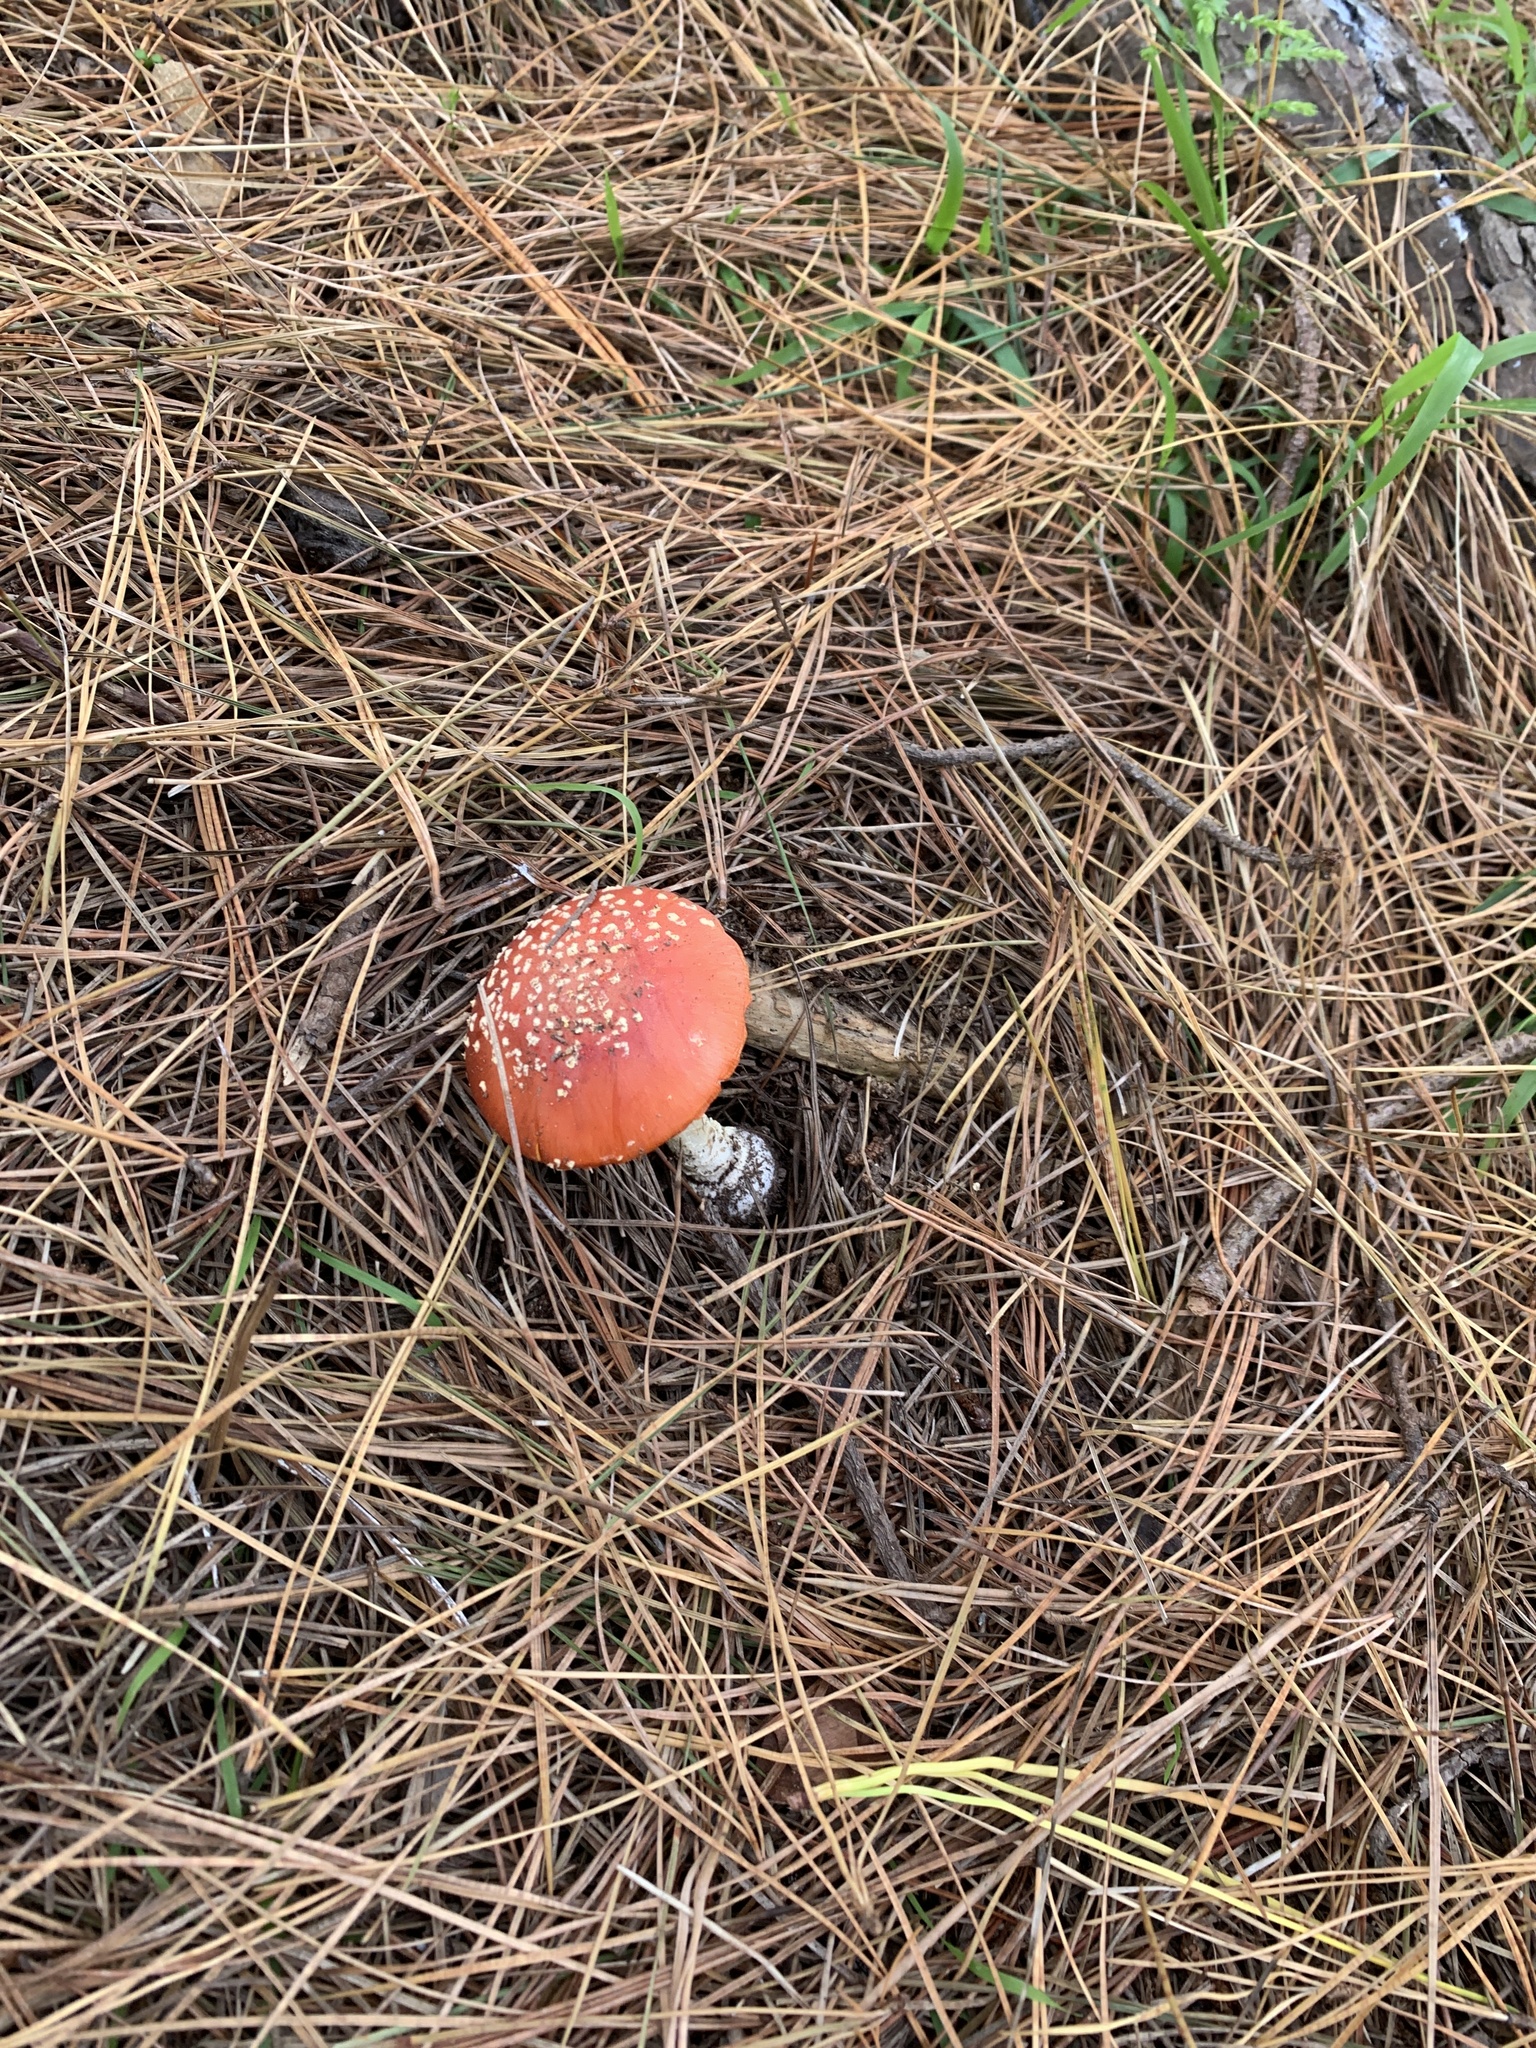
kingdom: Fungi
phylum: Basidiomycota
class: Agaricomycetes
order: Agaricales
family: Amanitaceae
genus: Amanita
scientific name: Amanita muscaria
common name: Fly agaric
